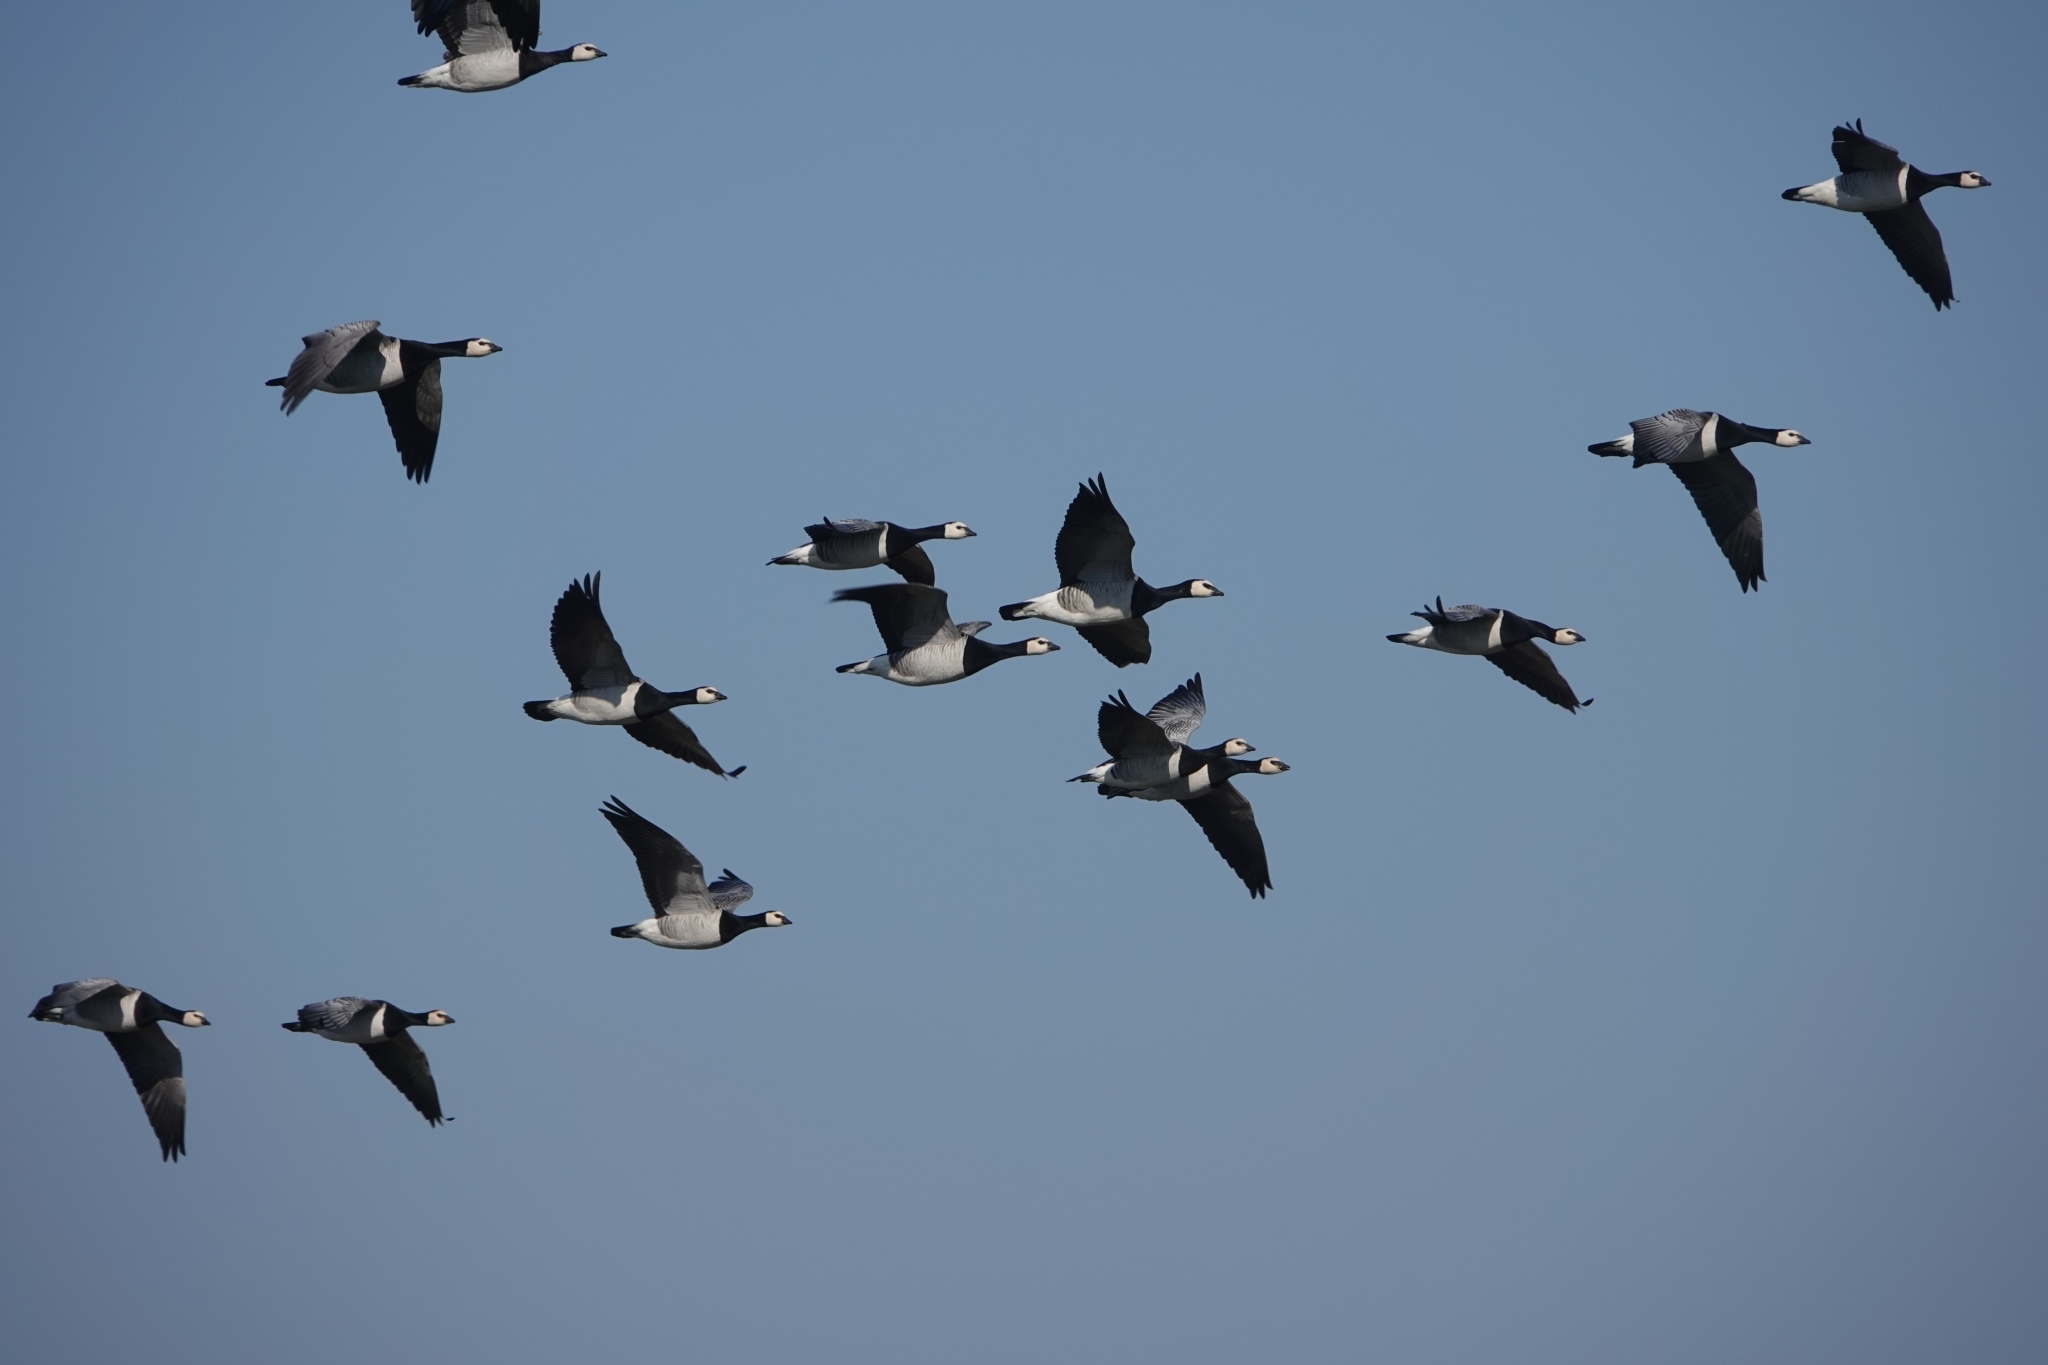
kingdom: Animalia
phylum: Chordata
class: Aves
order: Anseriformes
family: Anatidae
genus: Branta
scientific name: Branta leucopsis
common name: Barnacle goose
